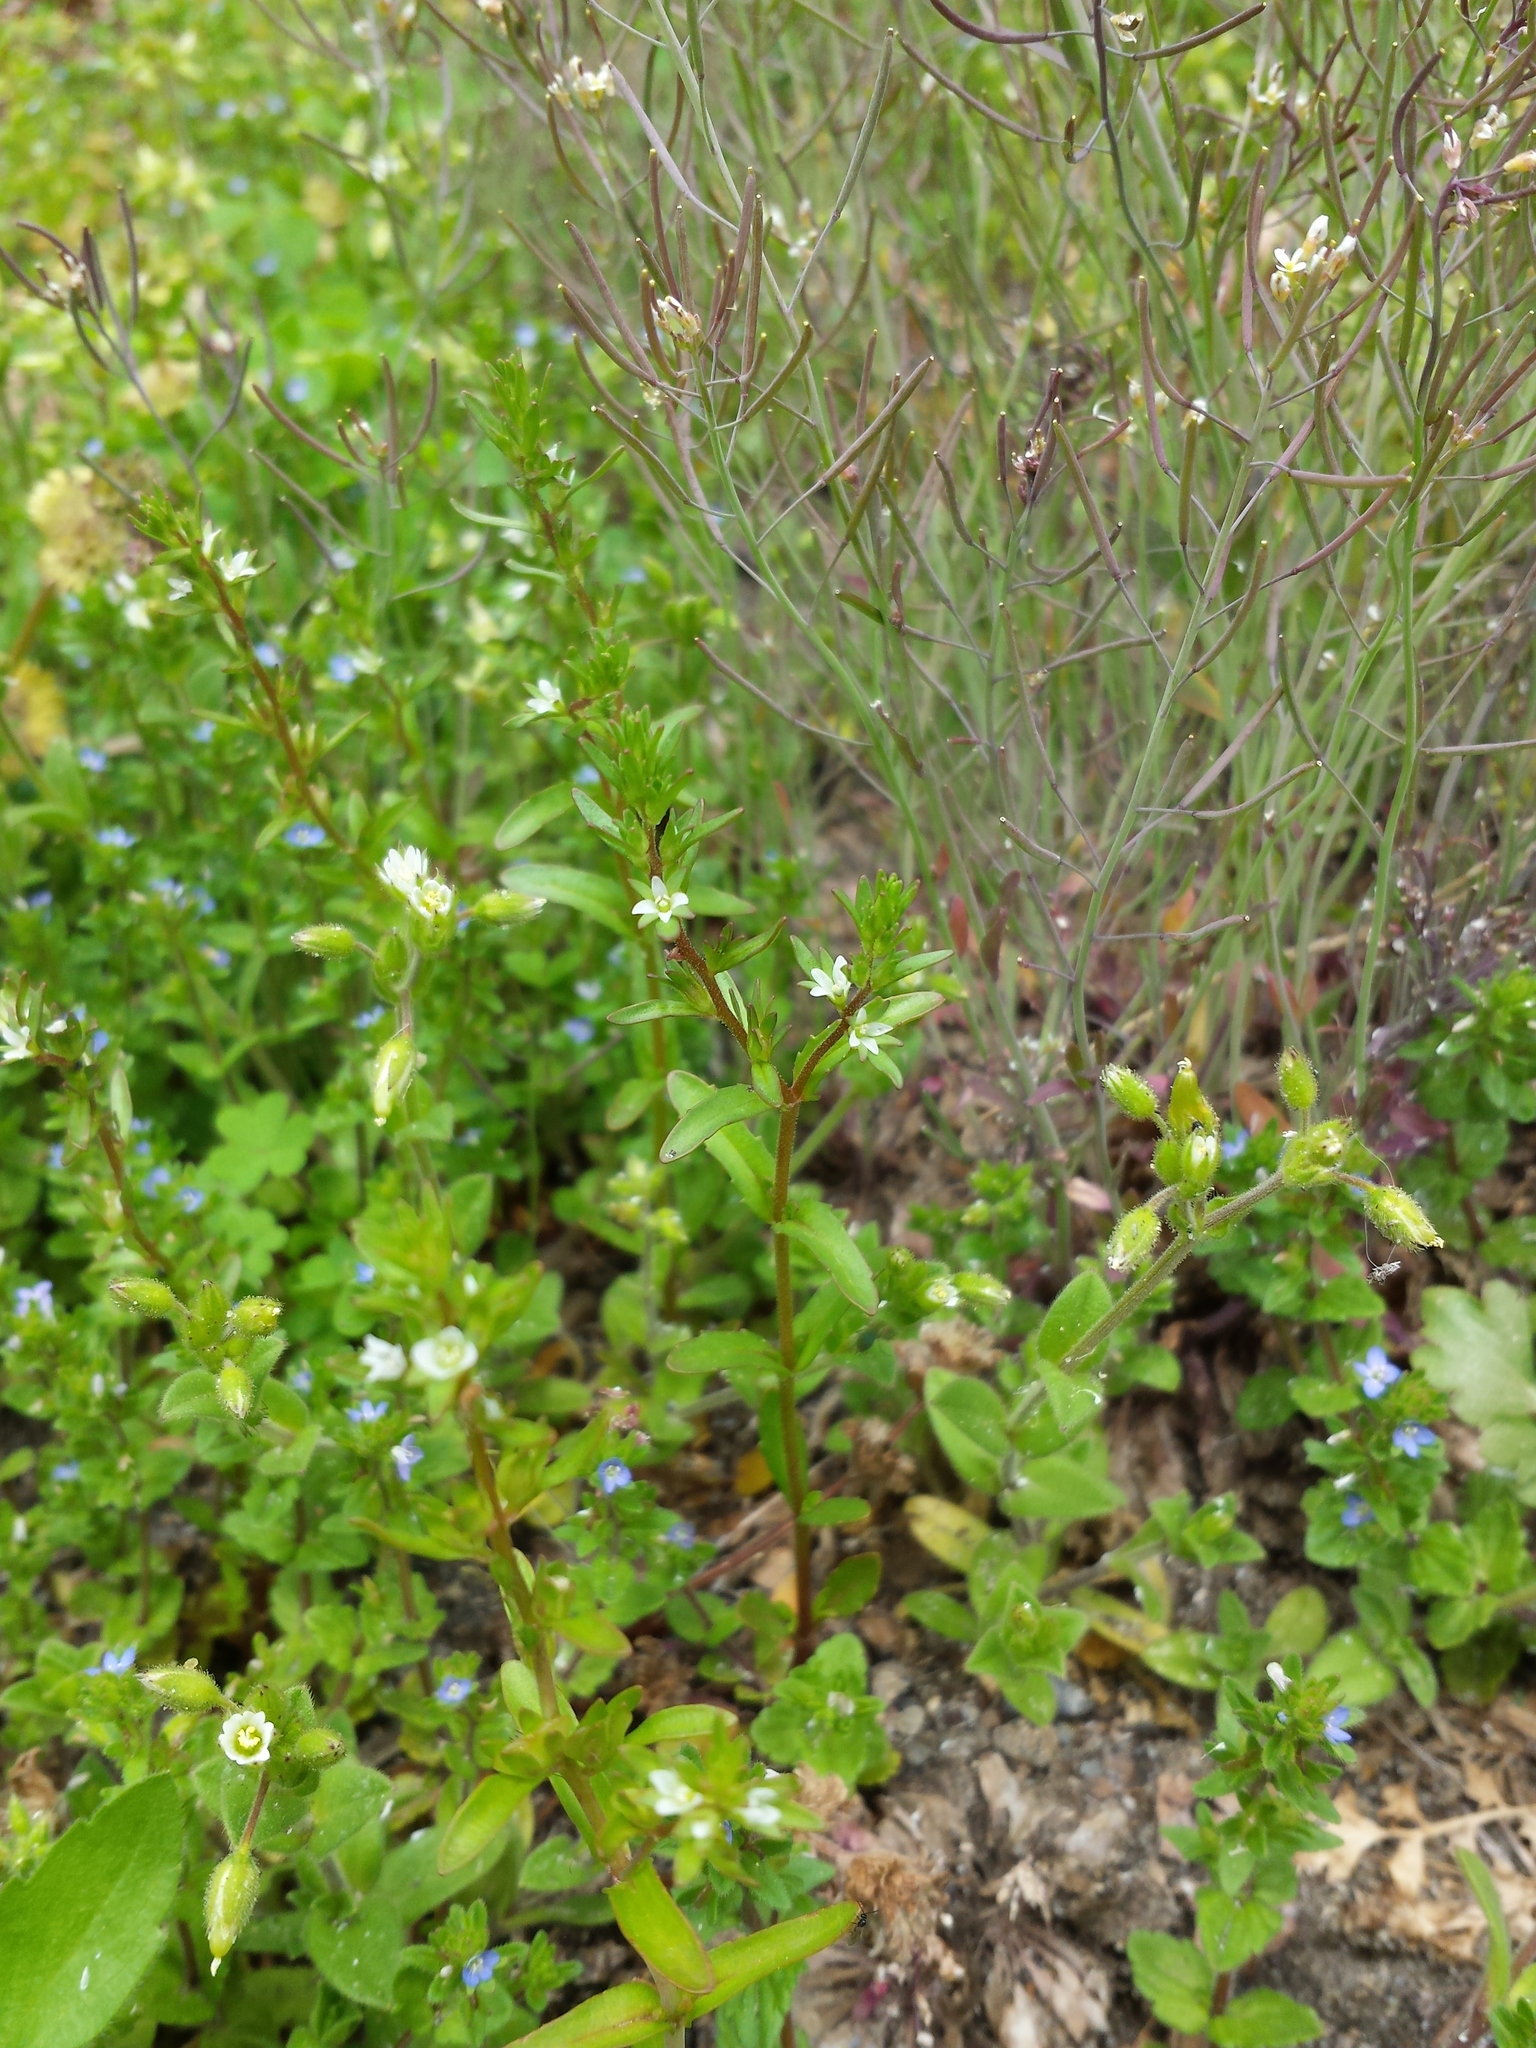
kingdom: Plantae
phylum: Tracheophyta
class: Magnoliopsida
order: Lamiales
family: Plantaginaceae
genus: Veronica
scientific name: Veronica peregrina
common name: Neckweed
